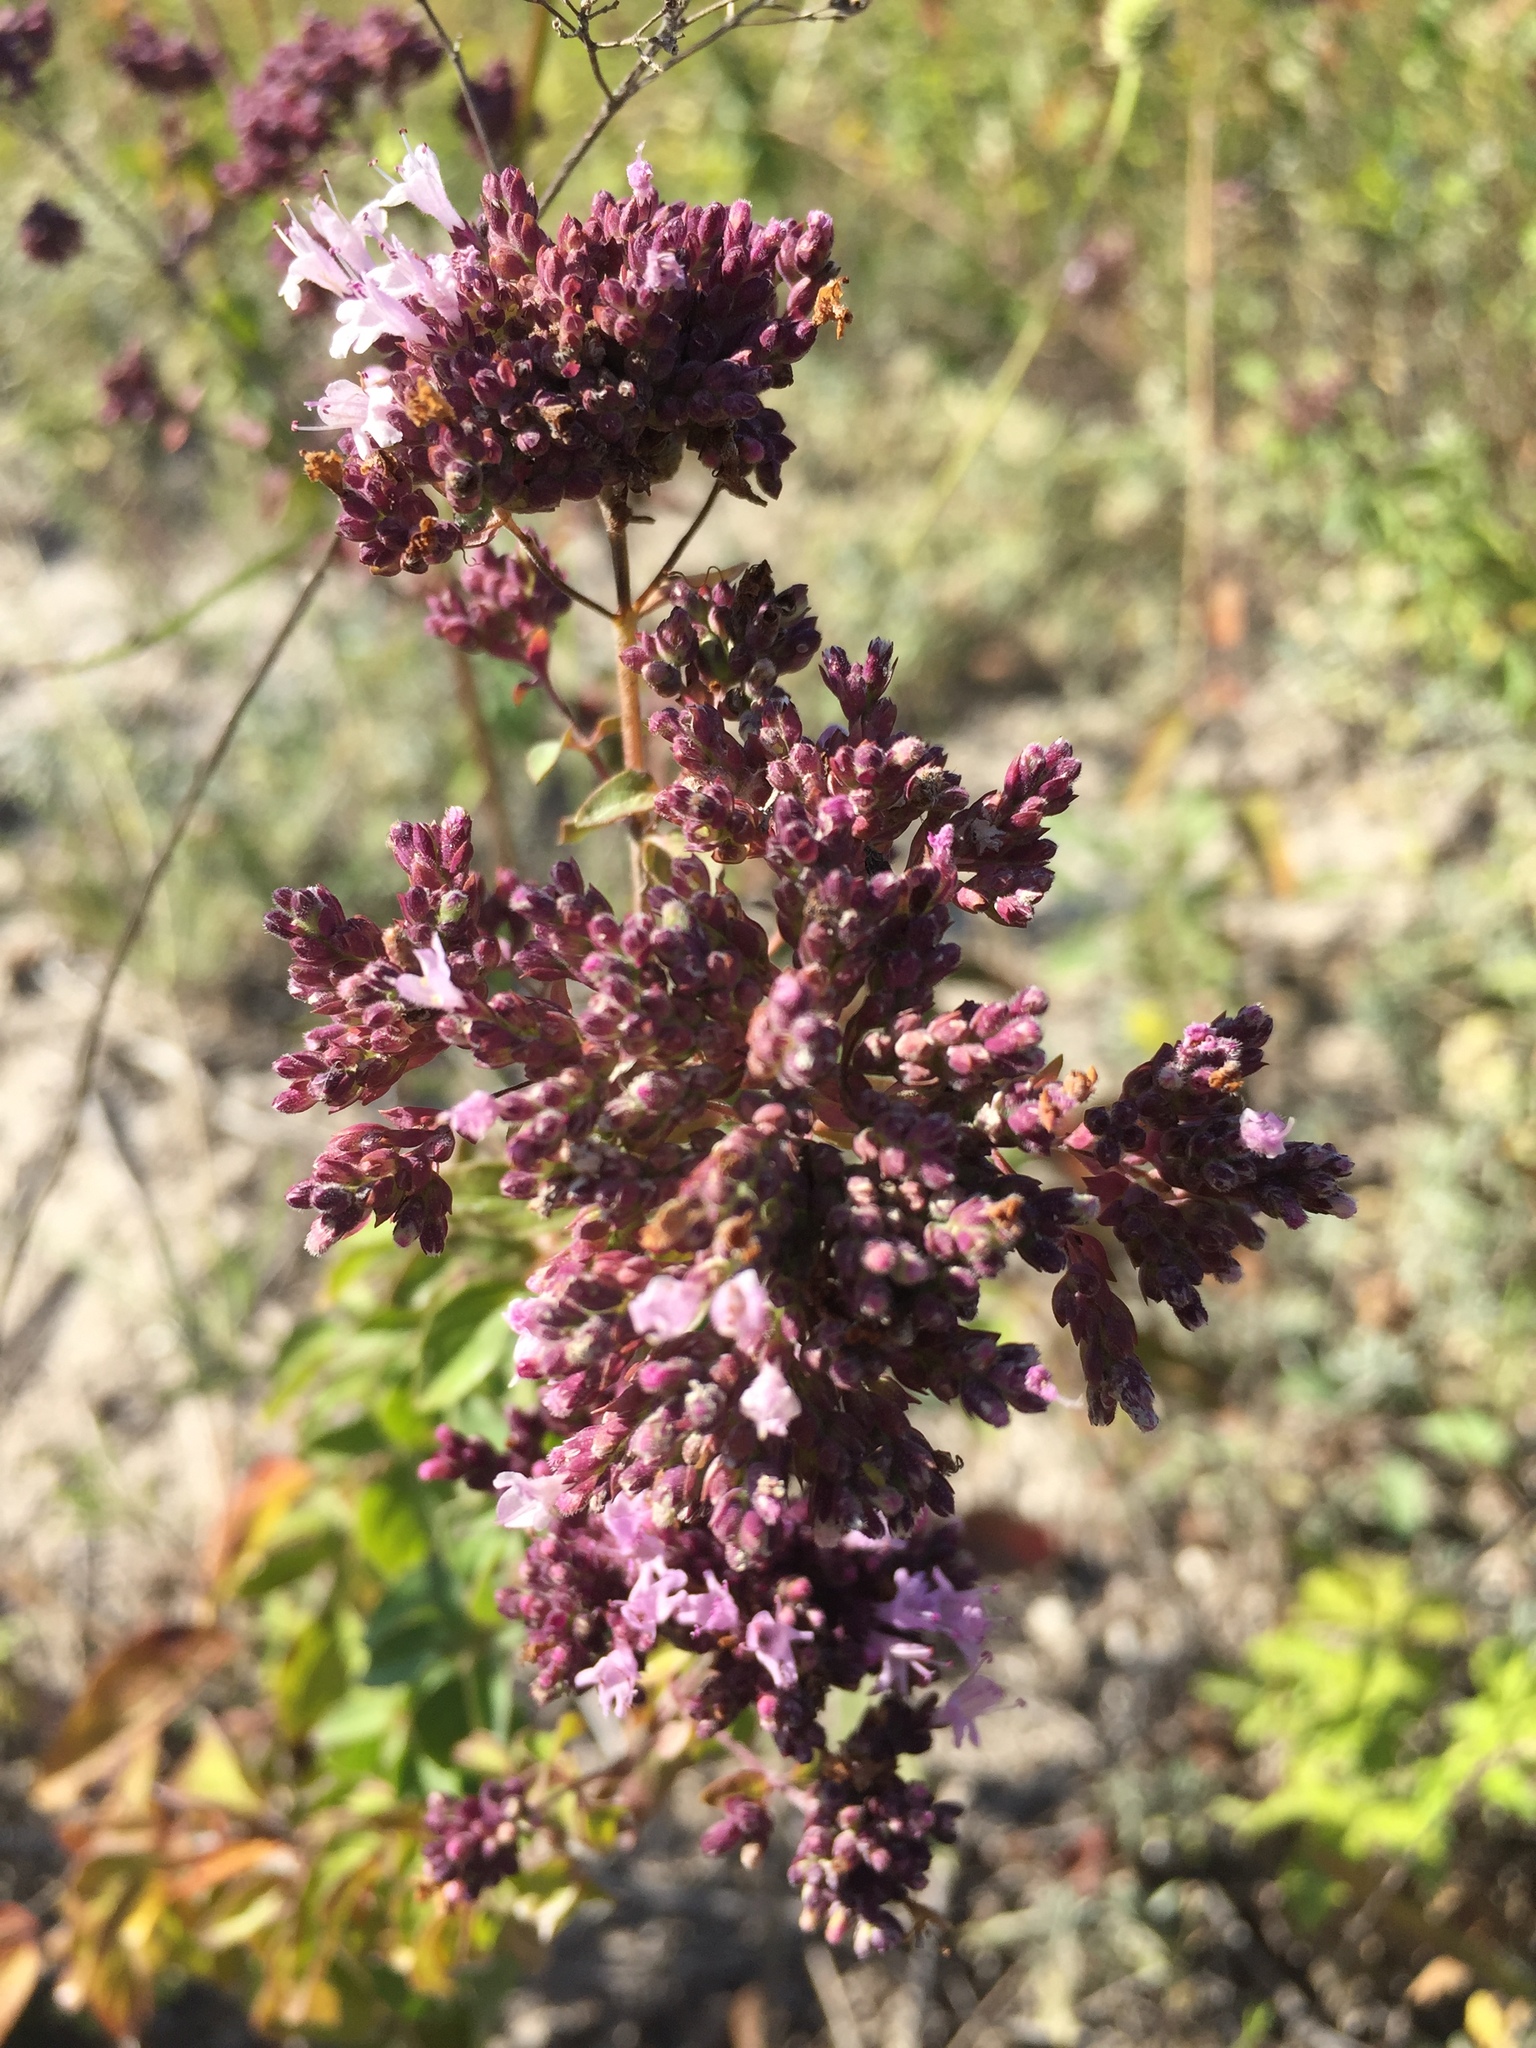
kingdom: Plantae
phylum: Tracheophyta
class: Magnoliopsida
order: Lamiales
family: Lamiaceae
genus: Origanum
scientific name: Origanum vulgare
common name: Wild marjoram
